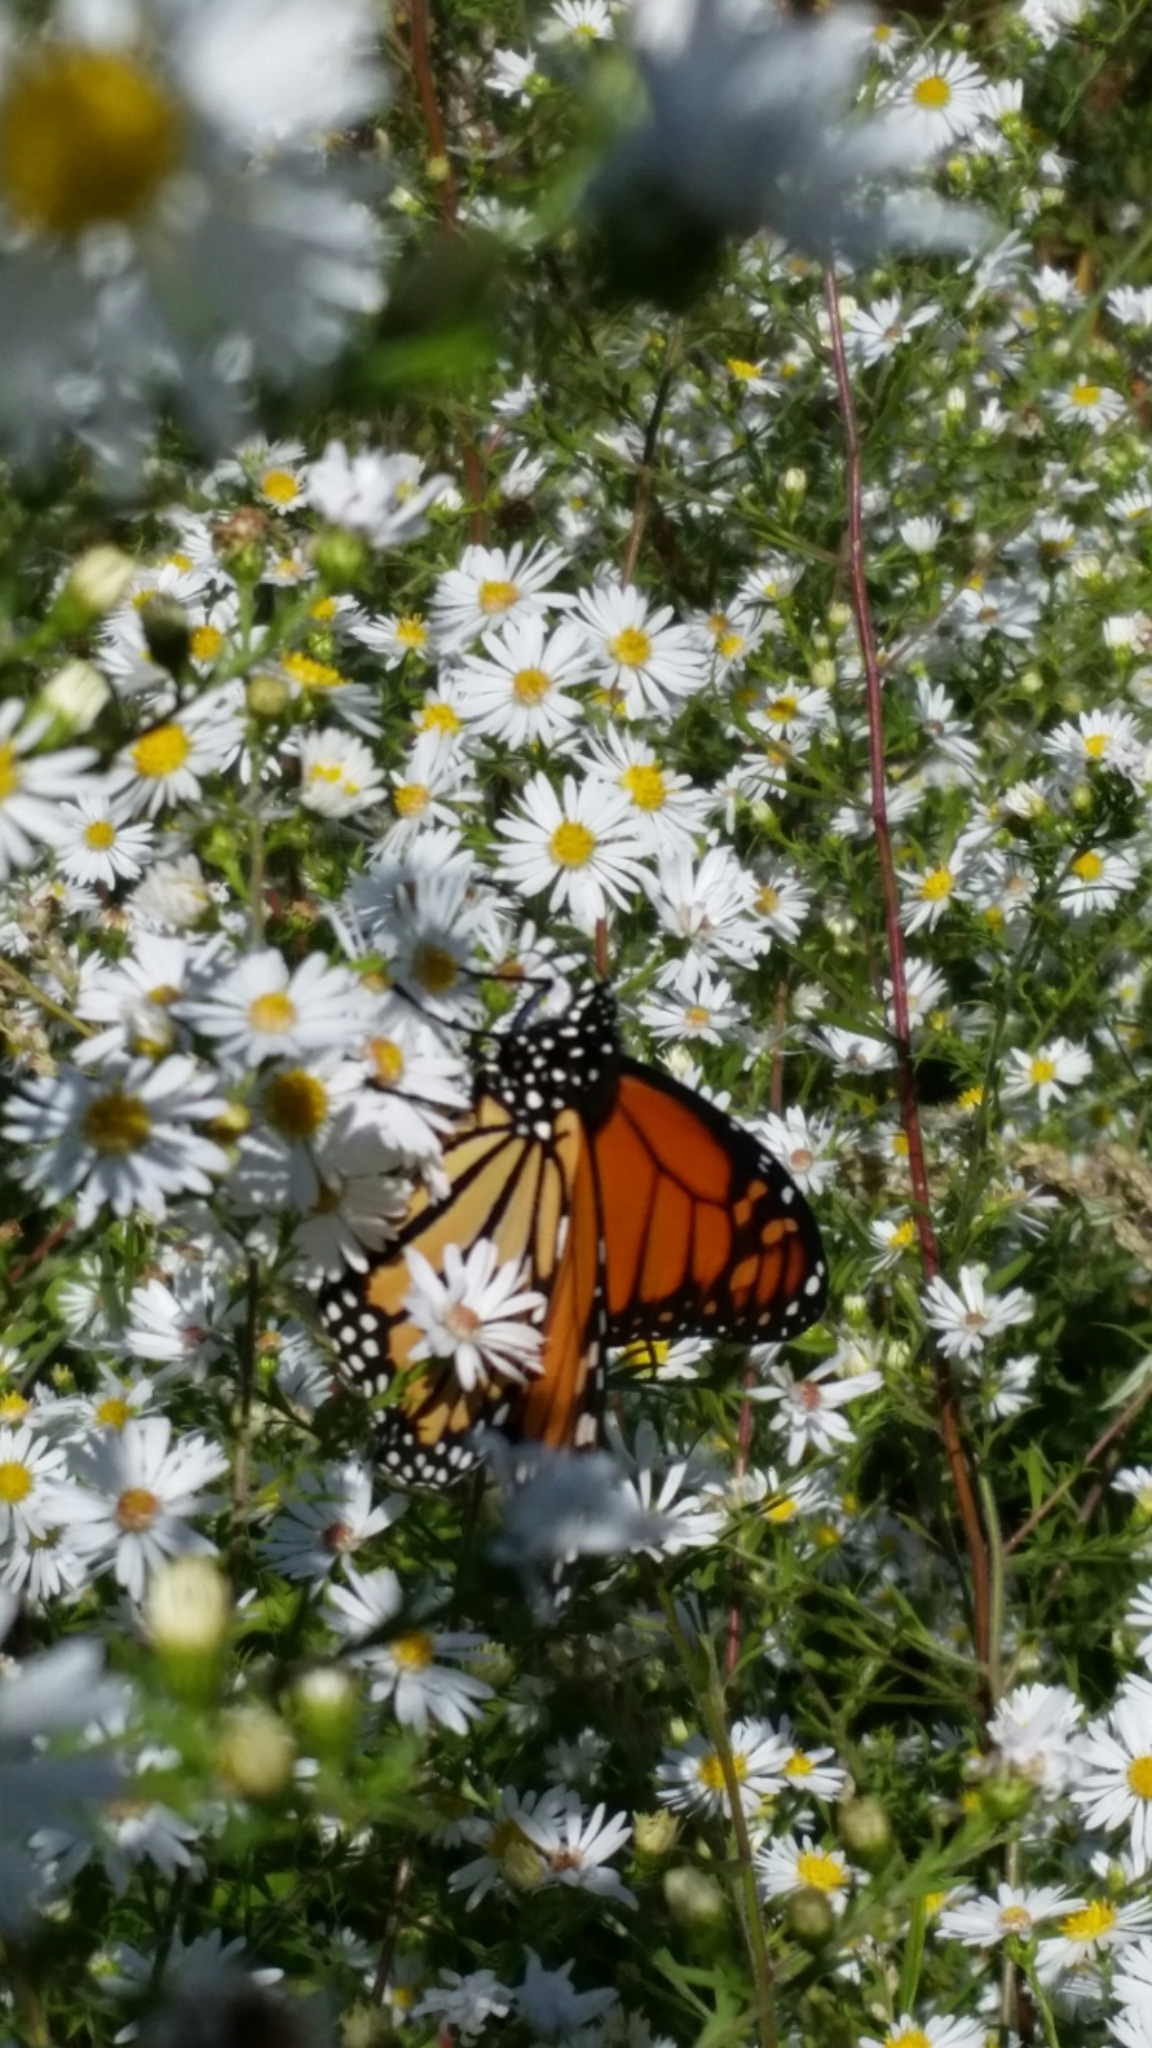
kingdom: Animalia
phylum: Arthropoda
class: Insecta
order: Lepidoptera
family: Nymphalidae
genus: Danaus
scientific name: Danaus plexippus
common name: Monarch
